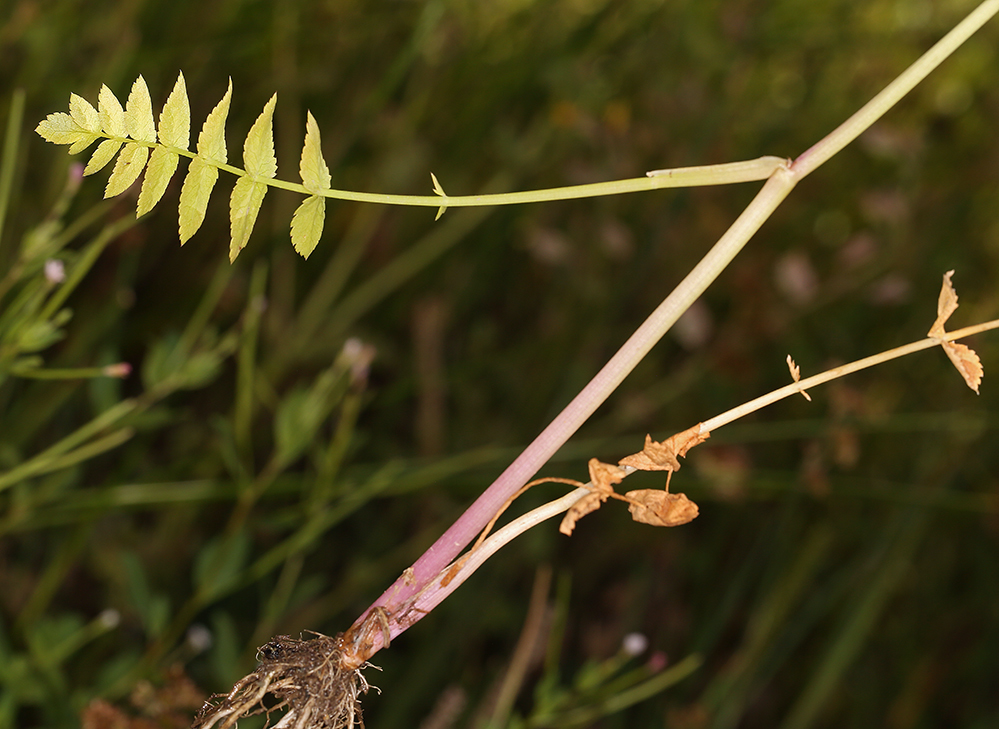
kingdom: Plantae
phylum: Tracheophyta
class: Magnoliopsida
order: Apiales
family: Apiaceae
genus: Berula
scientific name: Berula erecta
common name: Lesser water-parsnip
